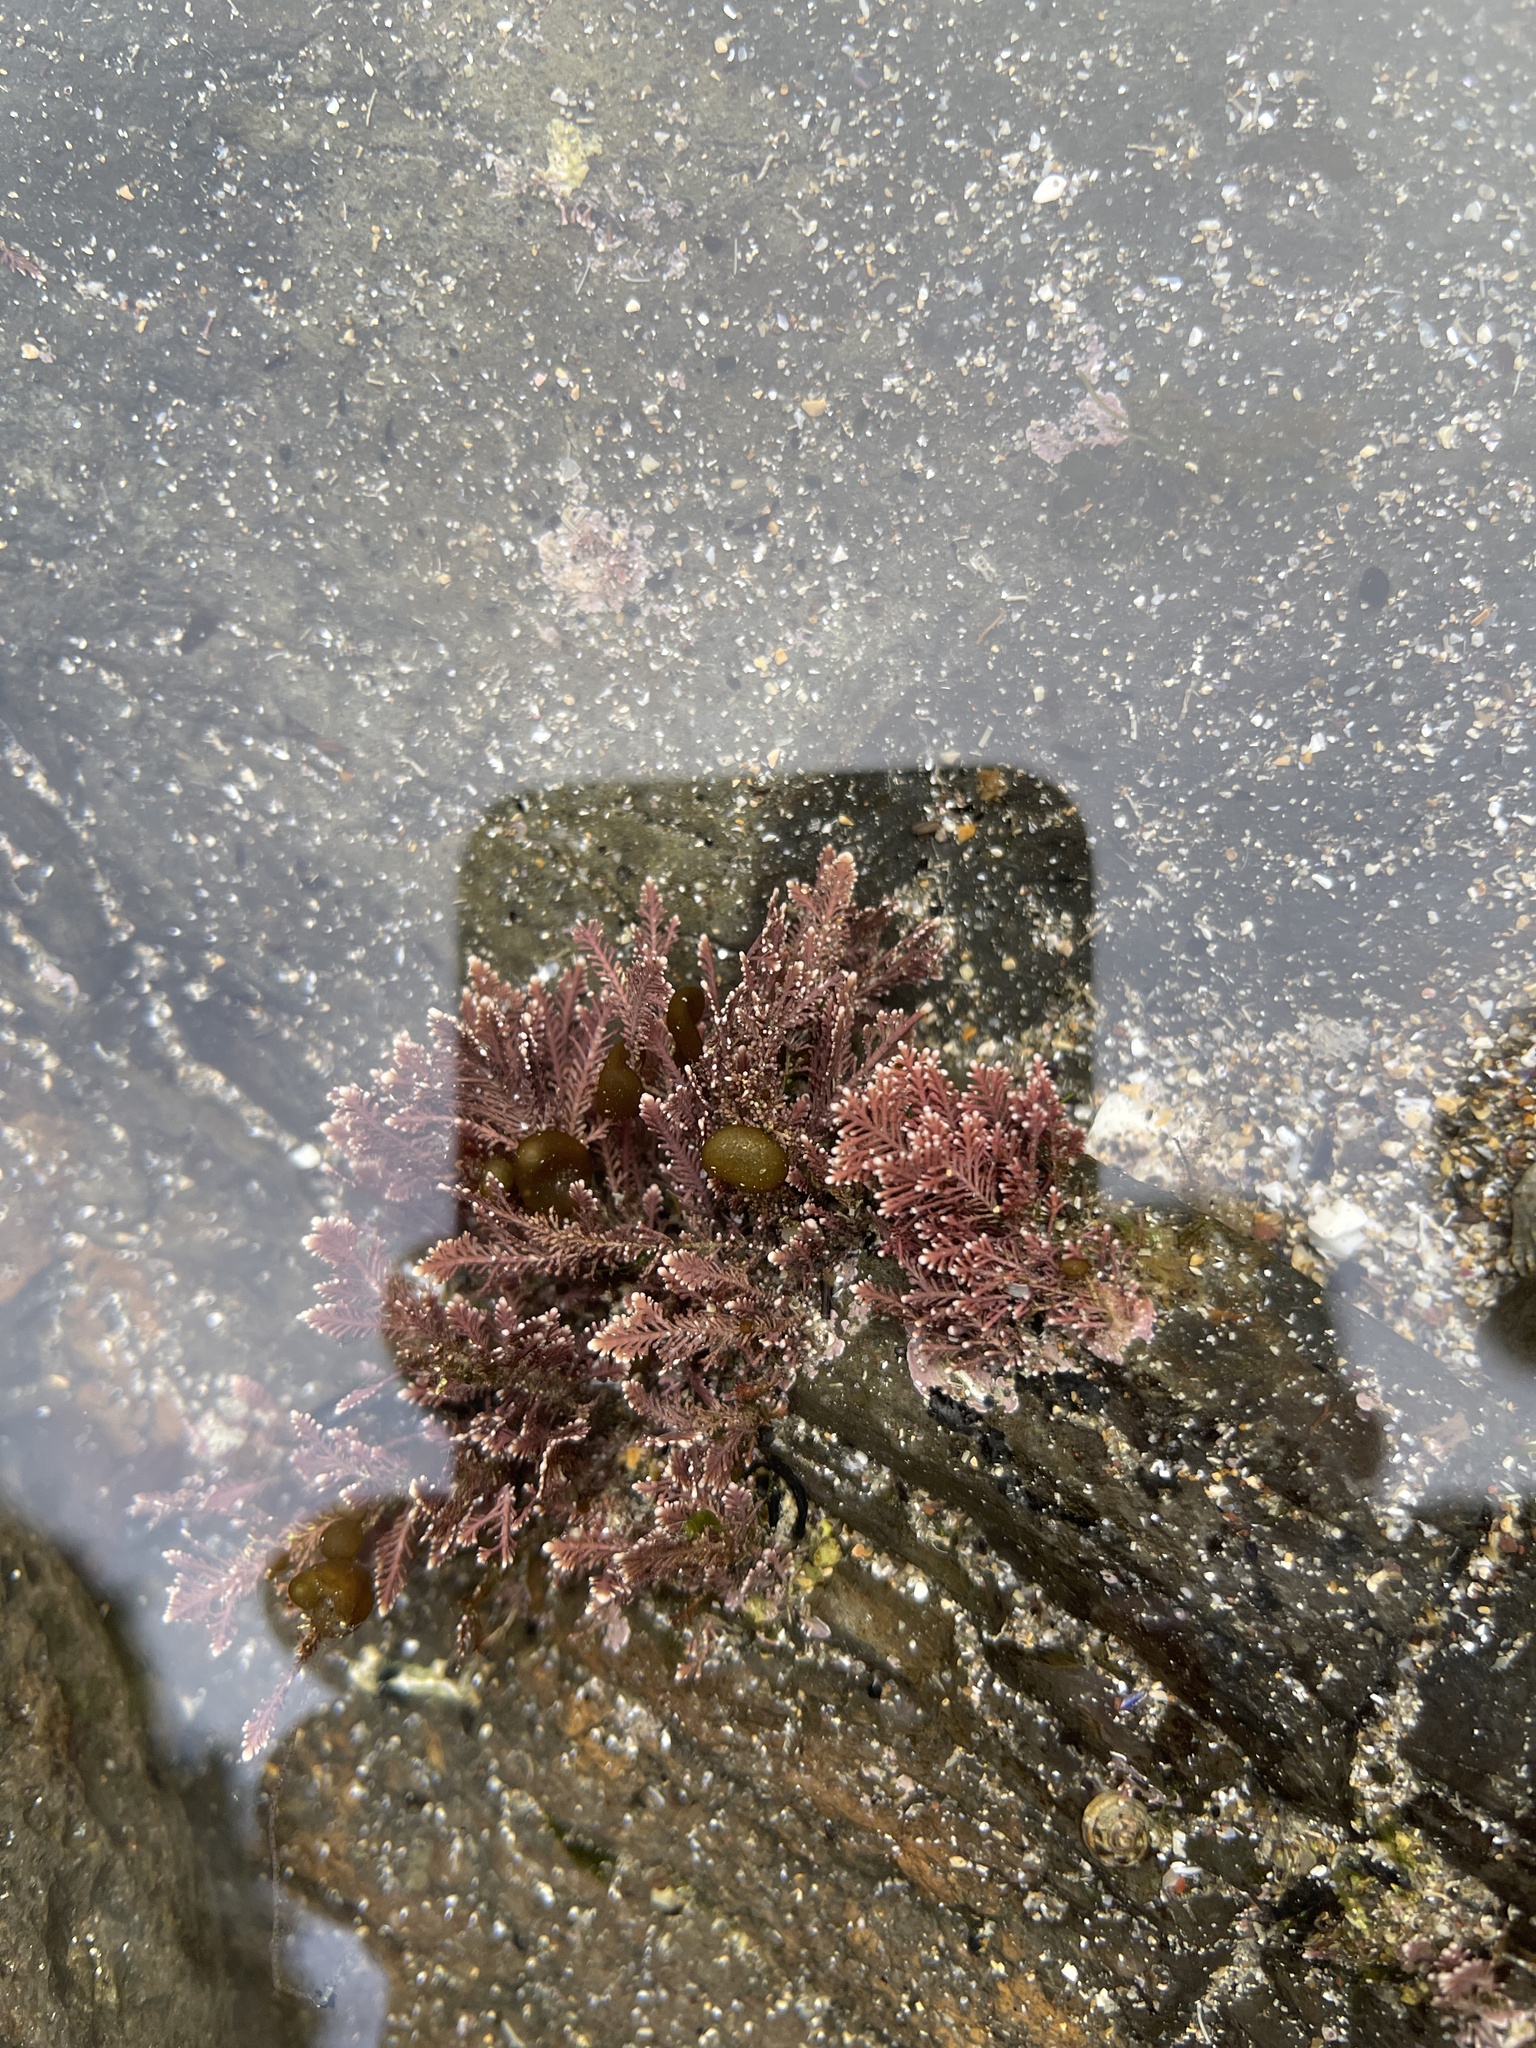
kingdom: Plantae
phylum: Rhodophyta
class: Florideophyceae
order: Corallinales
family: Corallinaceae
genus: Corallina
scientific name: Corallina officinalis
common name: Coral weed
